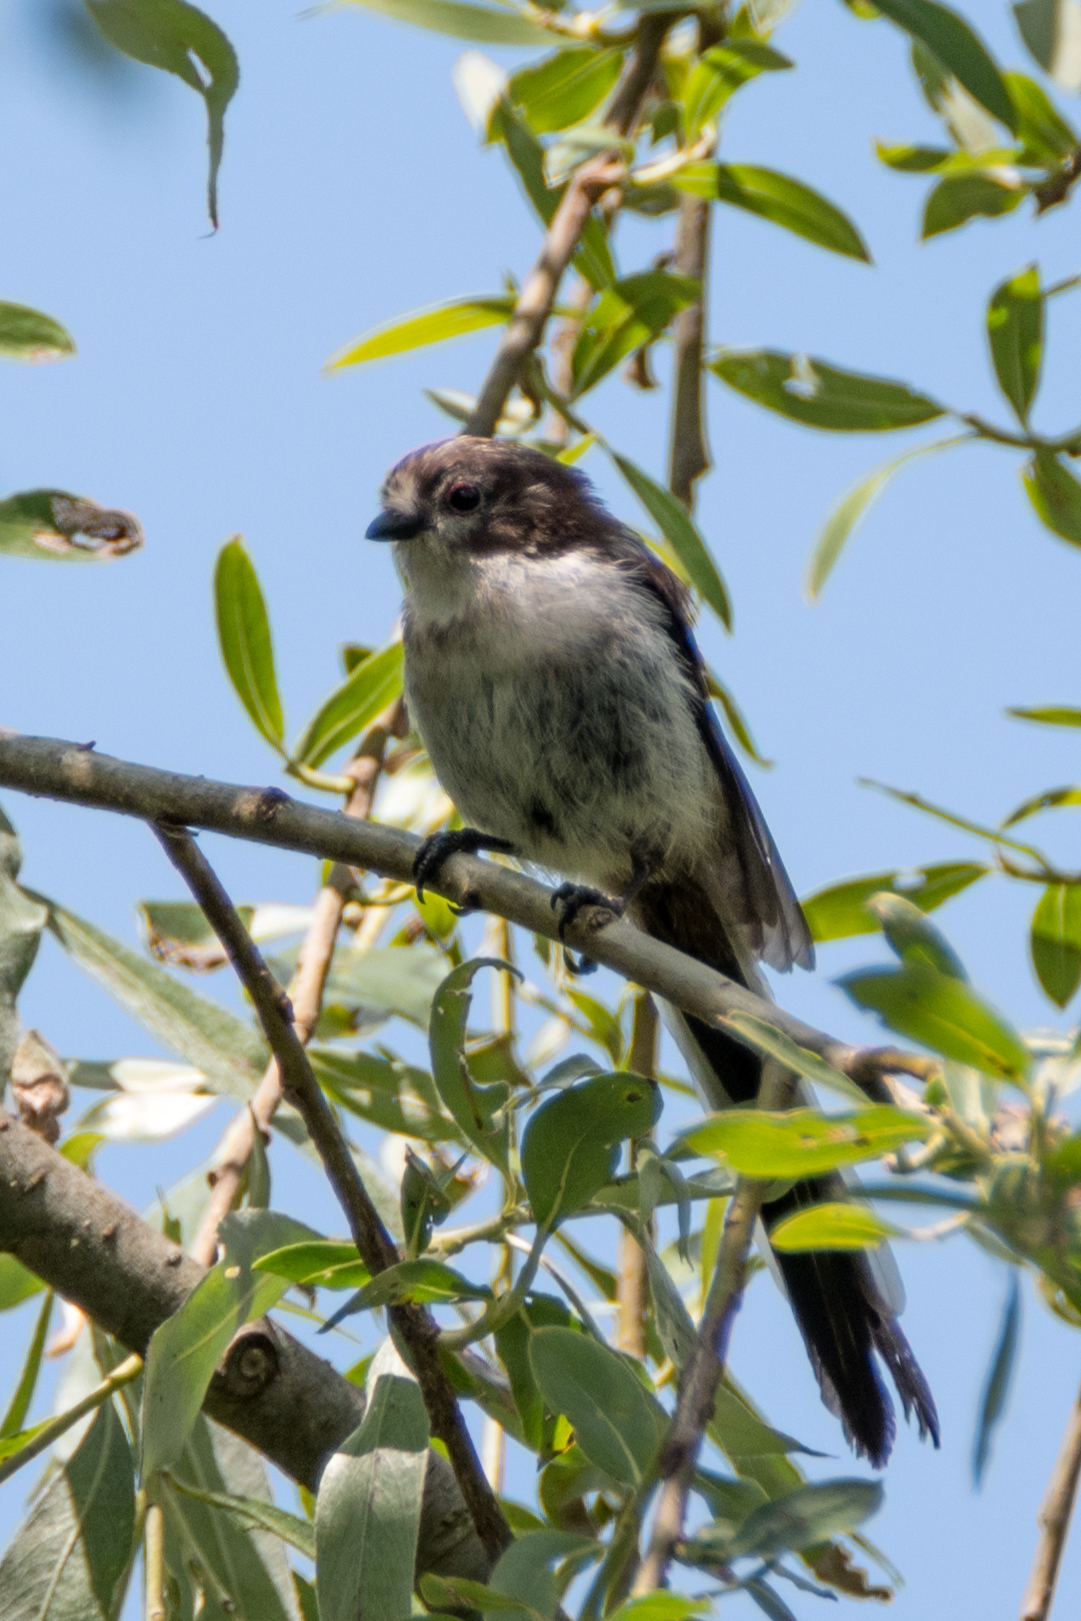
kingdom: Animalia
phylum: Chordata
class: Aves
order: Passeriformes
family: Aegithalidae
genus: Aegithalos
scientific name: Aegithalos caudatus
